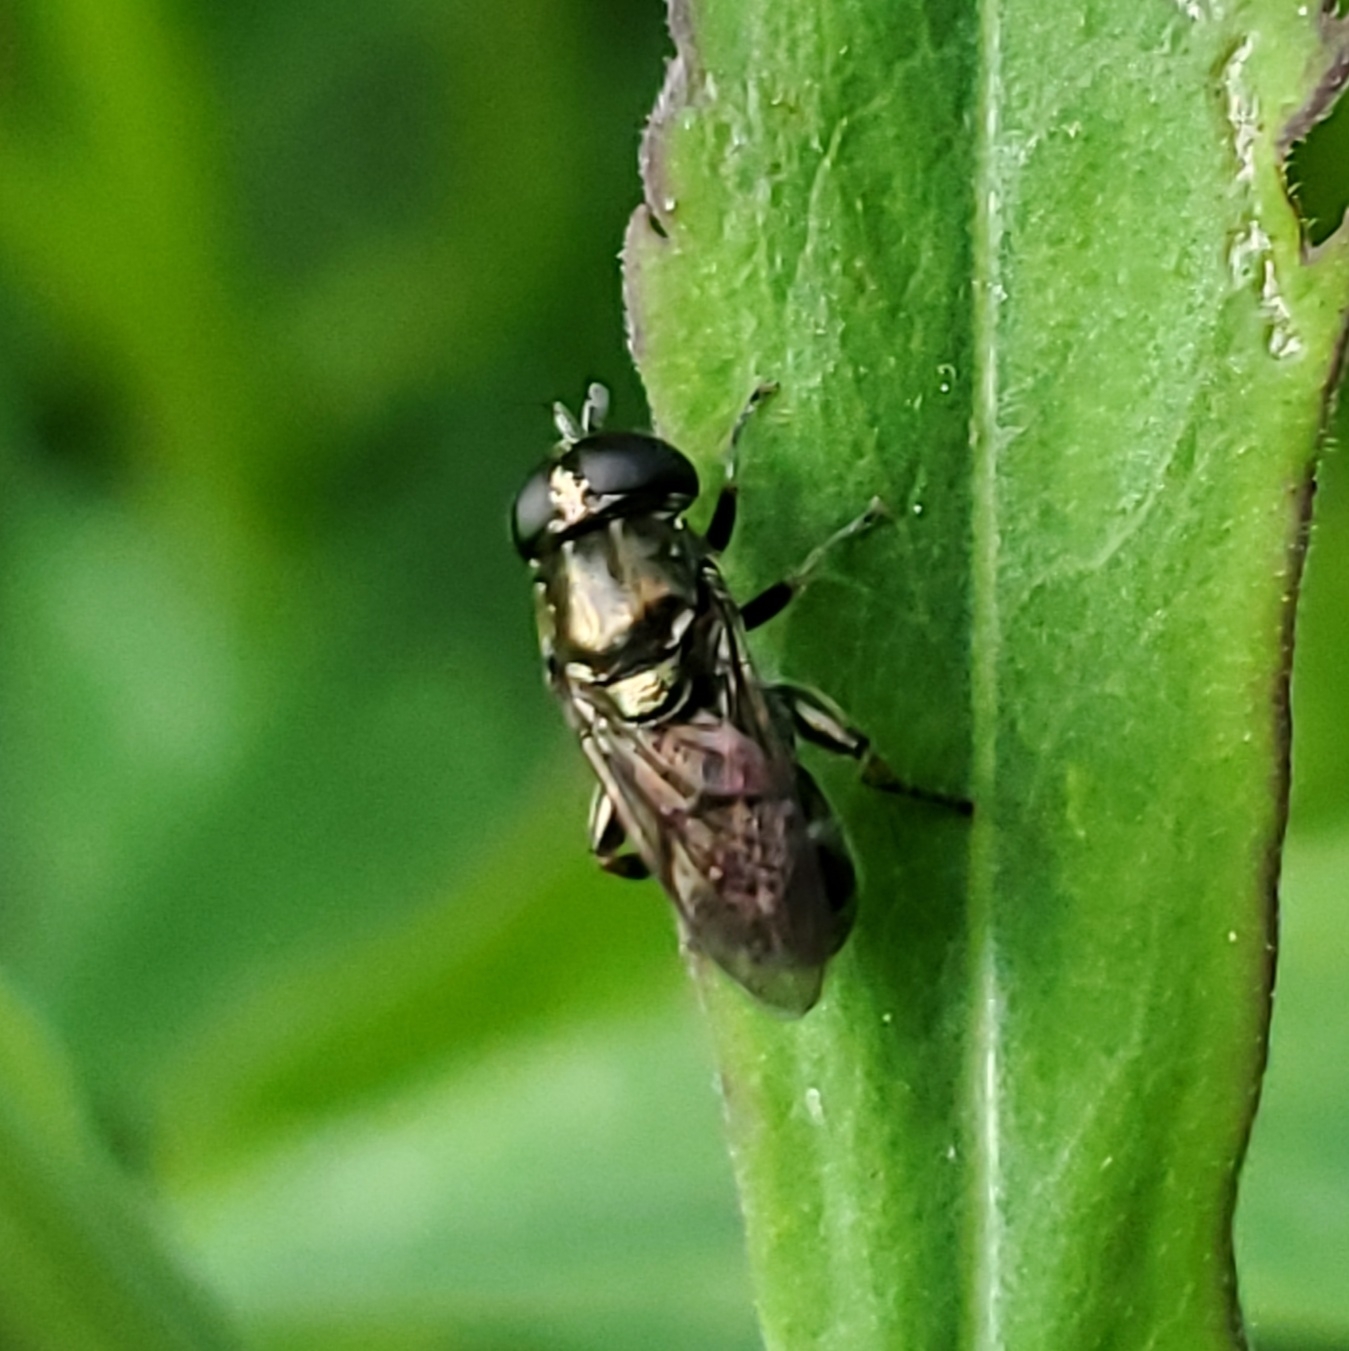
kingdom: Animalia
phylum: Arthropoda
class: Insecta
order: Diptera
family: Syrphidae
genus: Eumerus
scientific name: Eumerus
